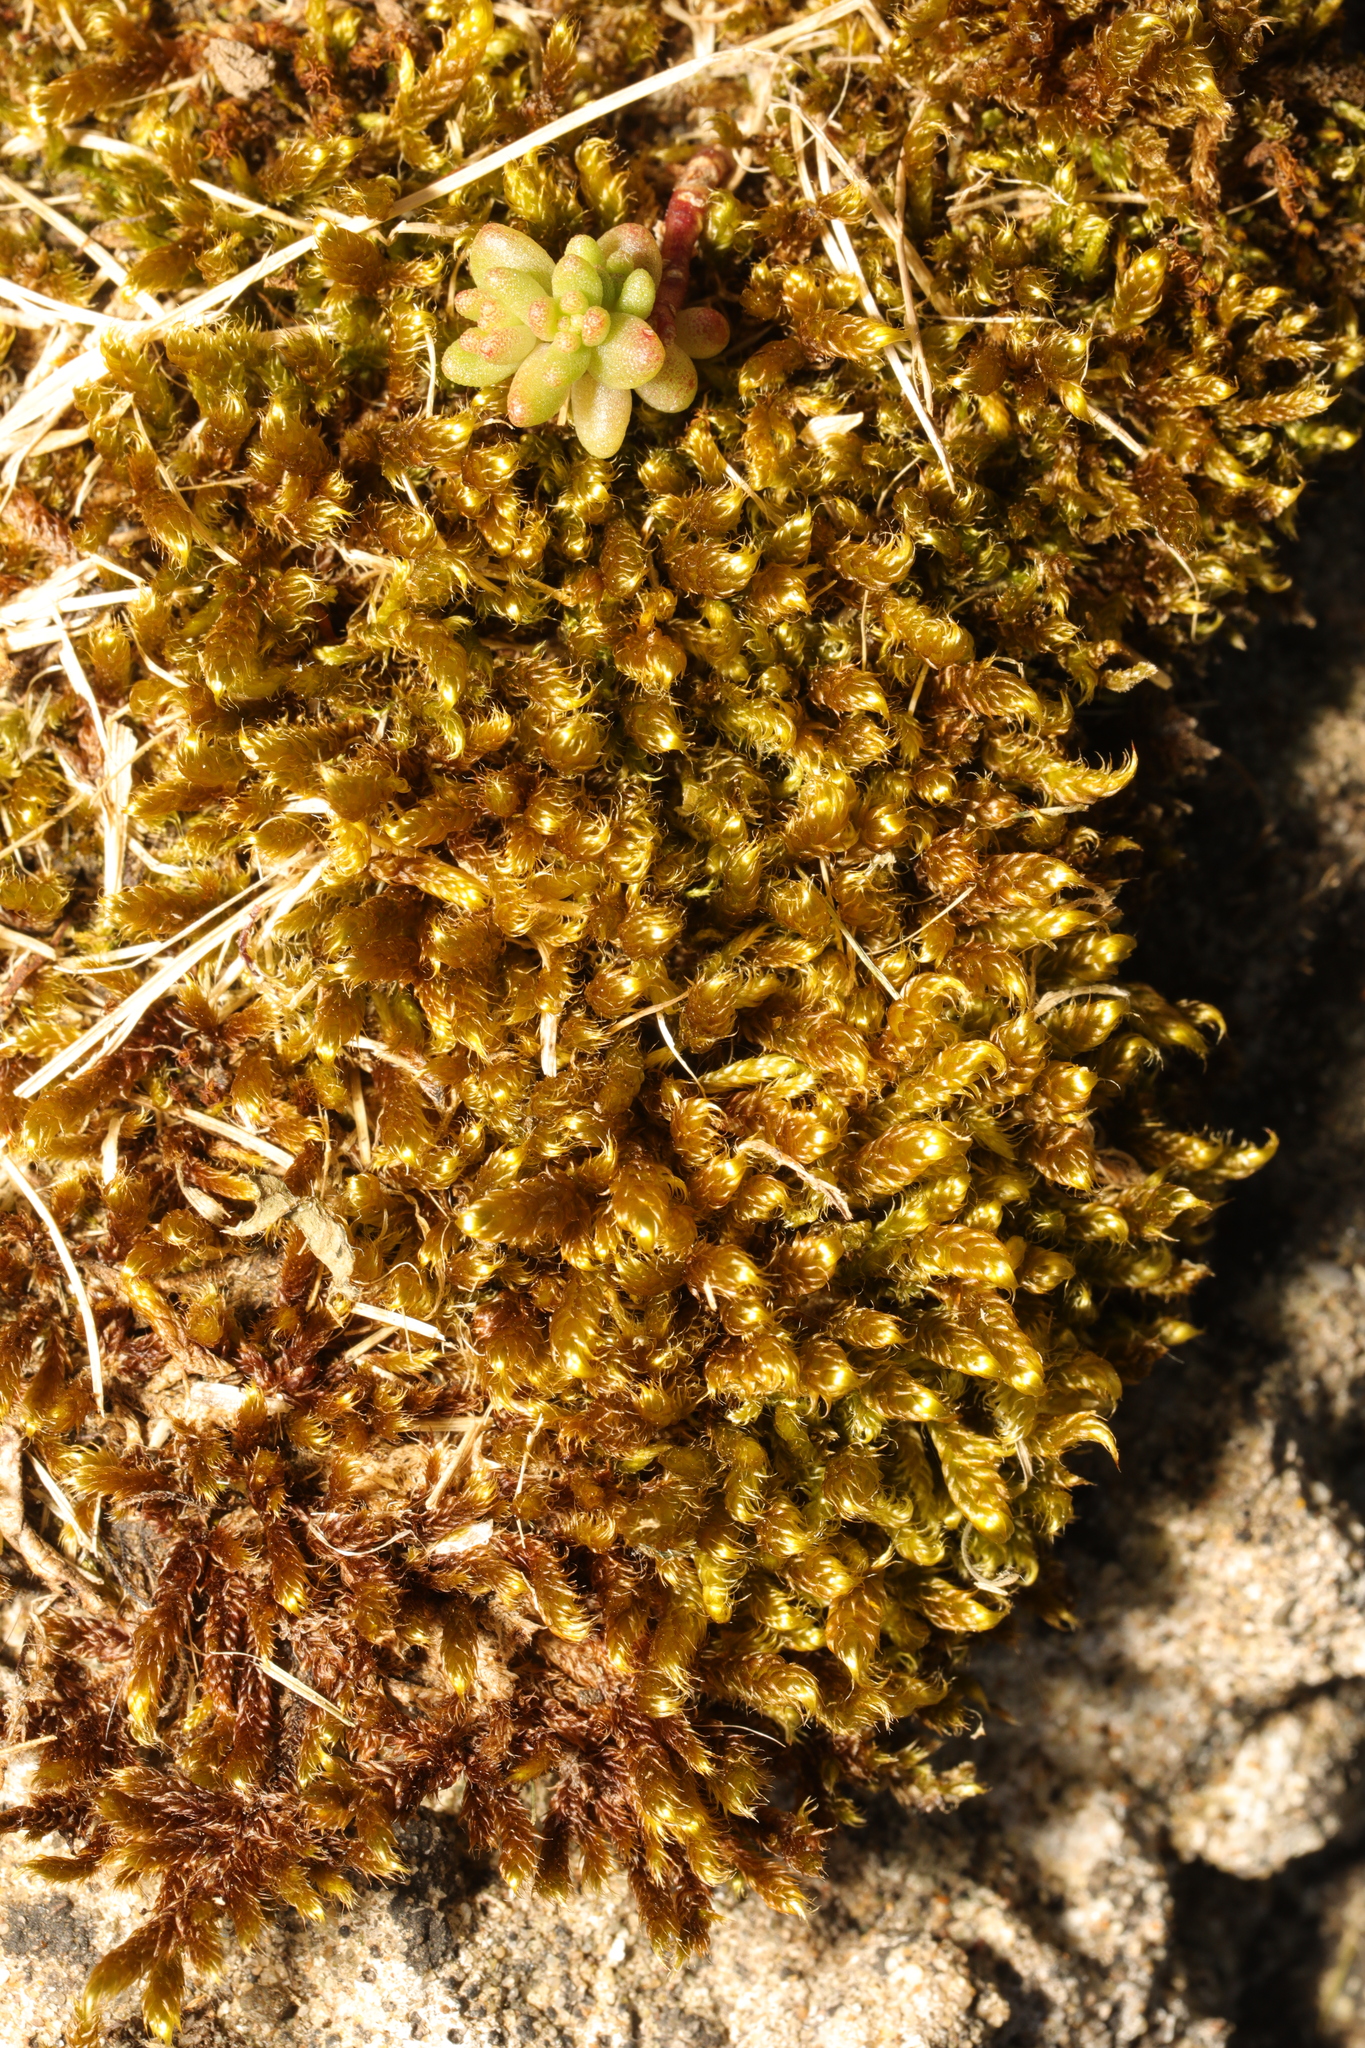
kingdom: Plantae
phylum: Bryophyta
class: Bryopsida
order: Hypnales
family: Hypnaceae
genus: Hypnum
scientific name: Hypnum cupressiforme
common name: Cypress-leaved plait-moss
